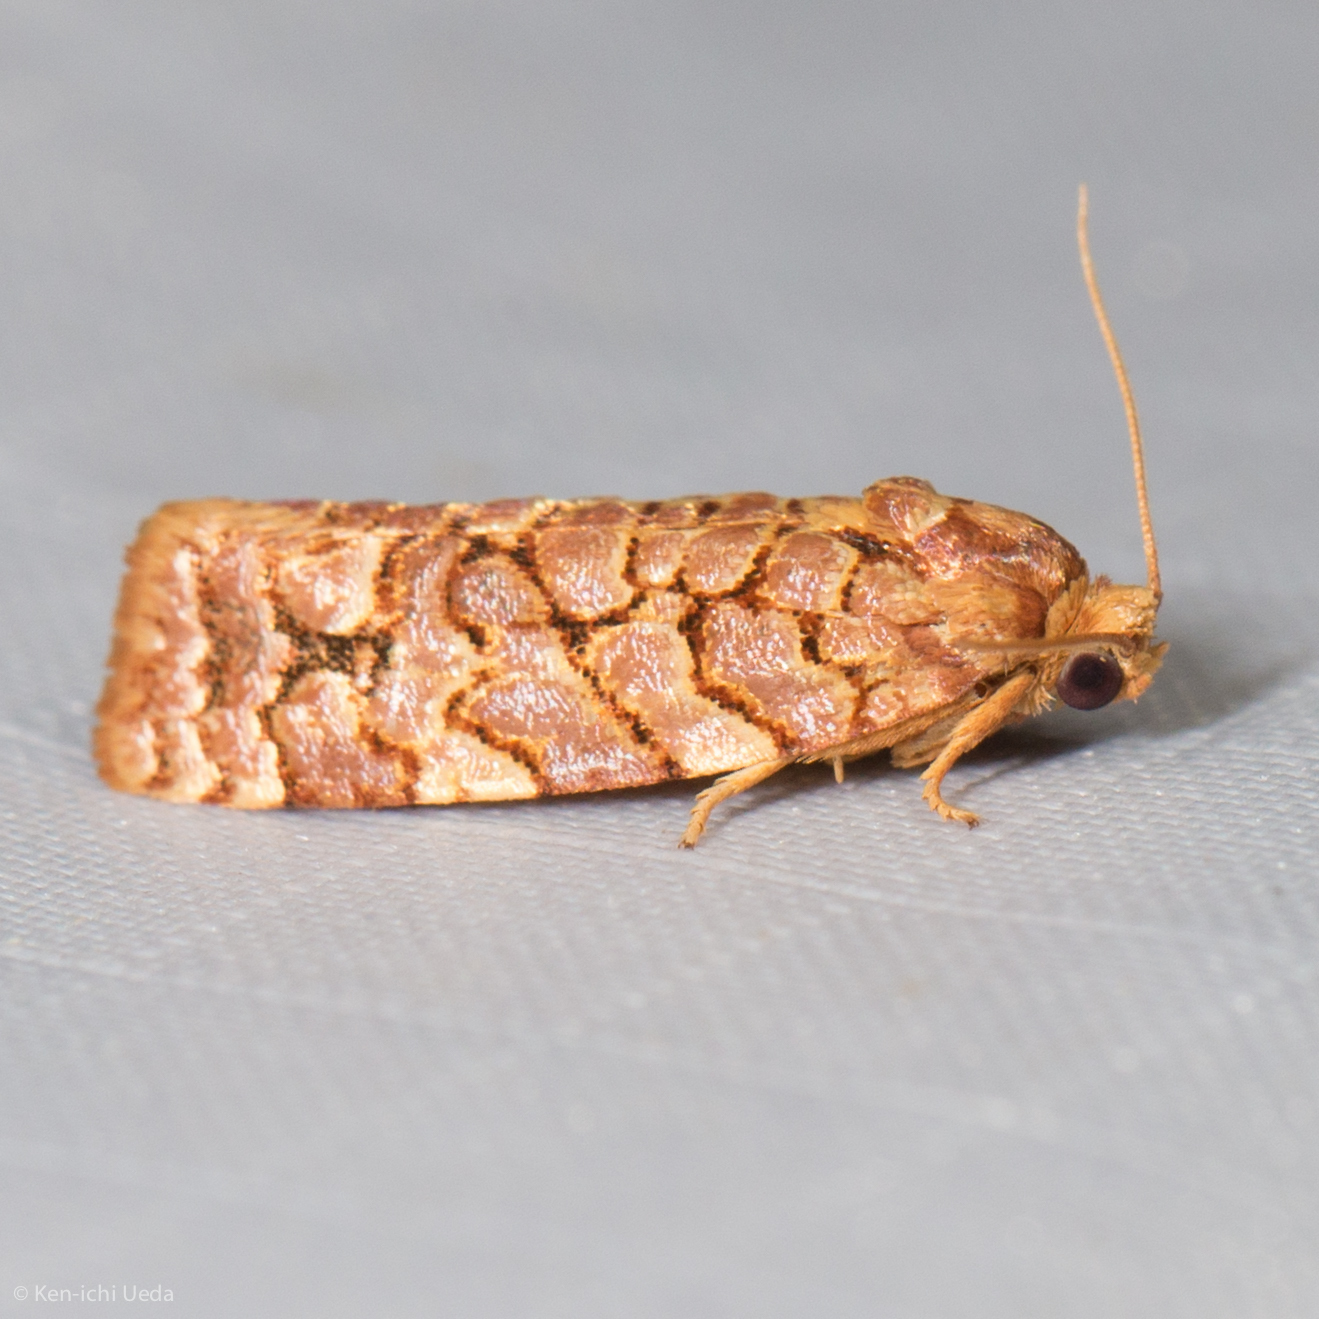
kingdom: Animalia
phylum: Arthropoda
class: Insecta
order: Lepidoptera
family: Tortricidae
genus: Choristoneura
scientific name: Choristoneura houstonana
